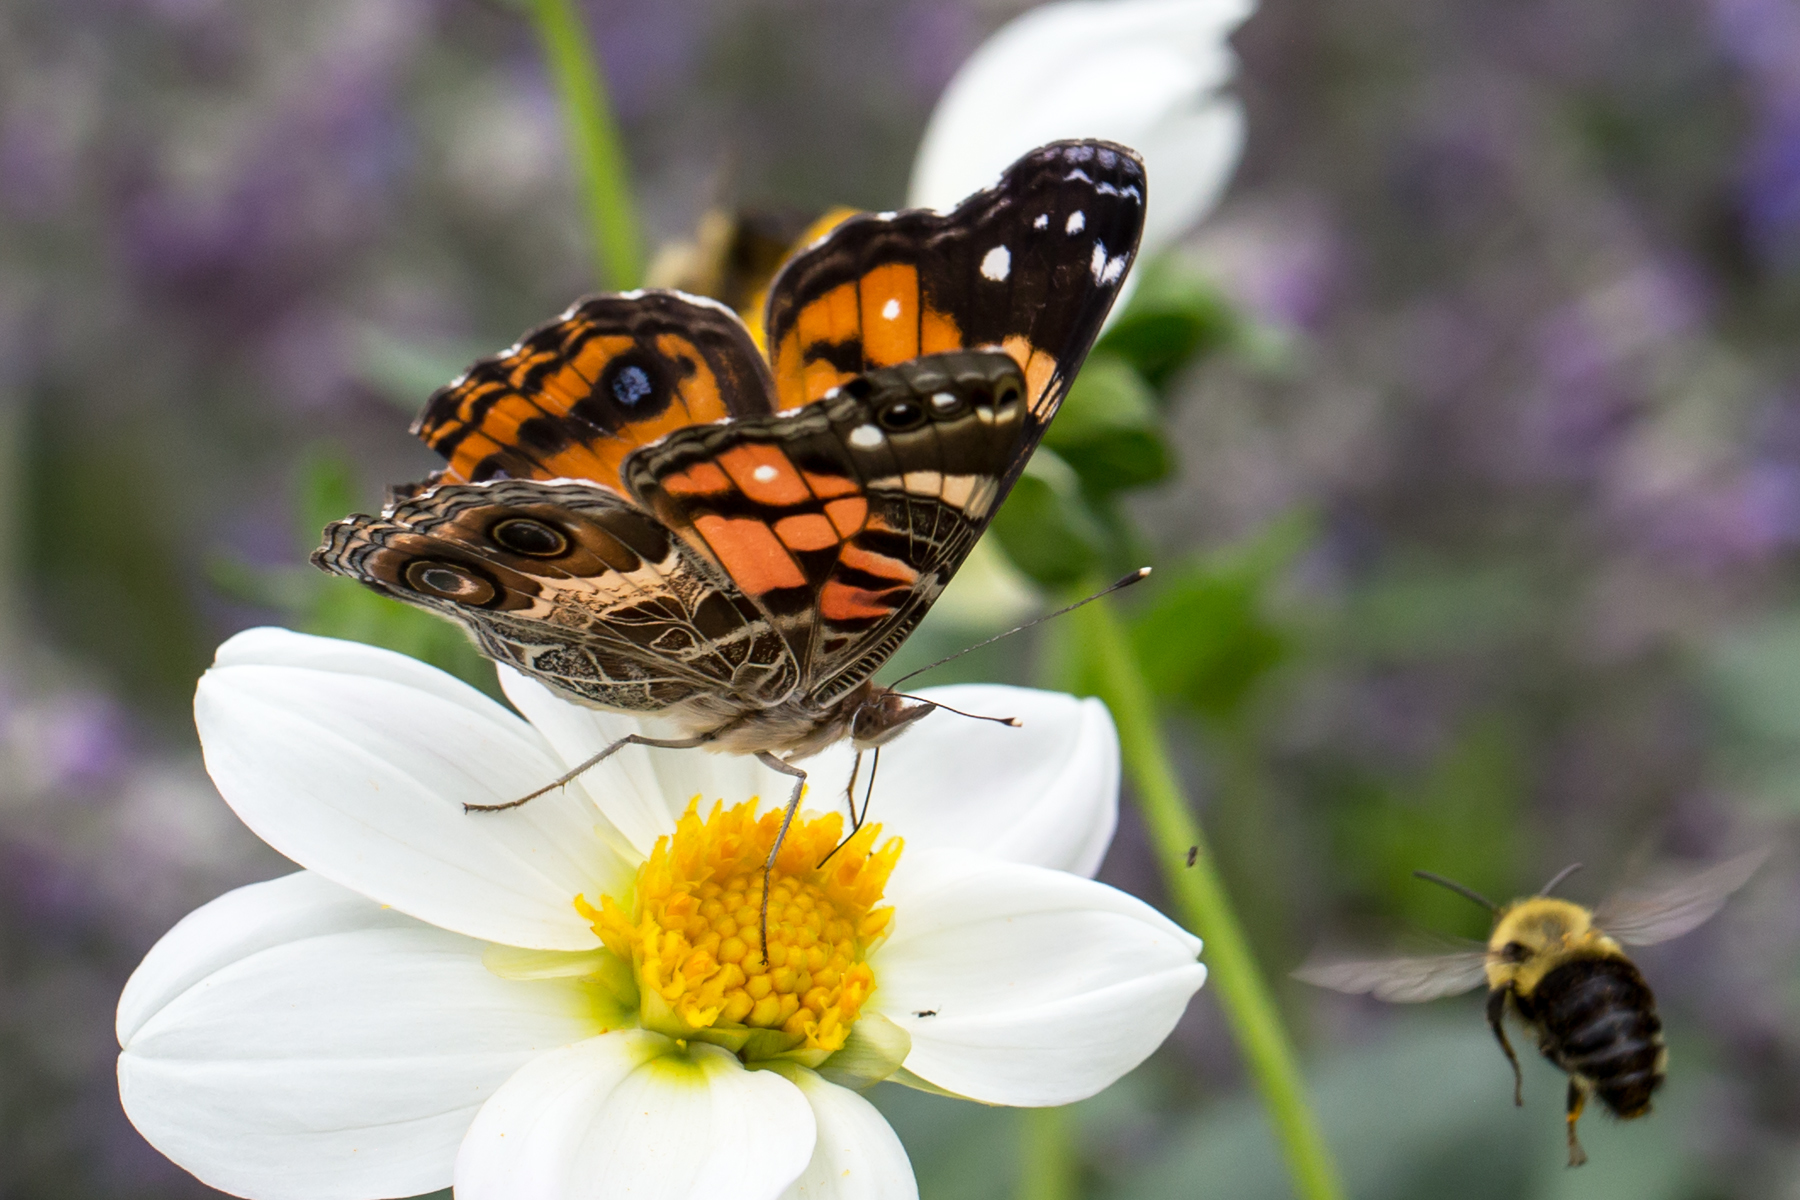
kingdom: Animalia
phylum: Arthropoda
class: Insecta
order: Lepidoptera
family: Nymphalidae
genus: Vanessa
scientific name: Vanessa virginiensis
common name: American lady
